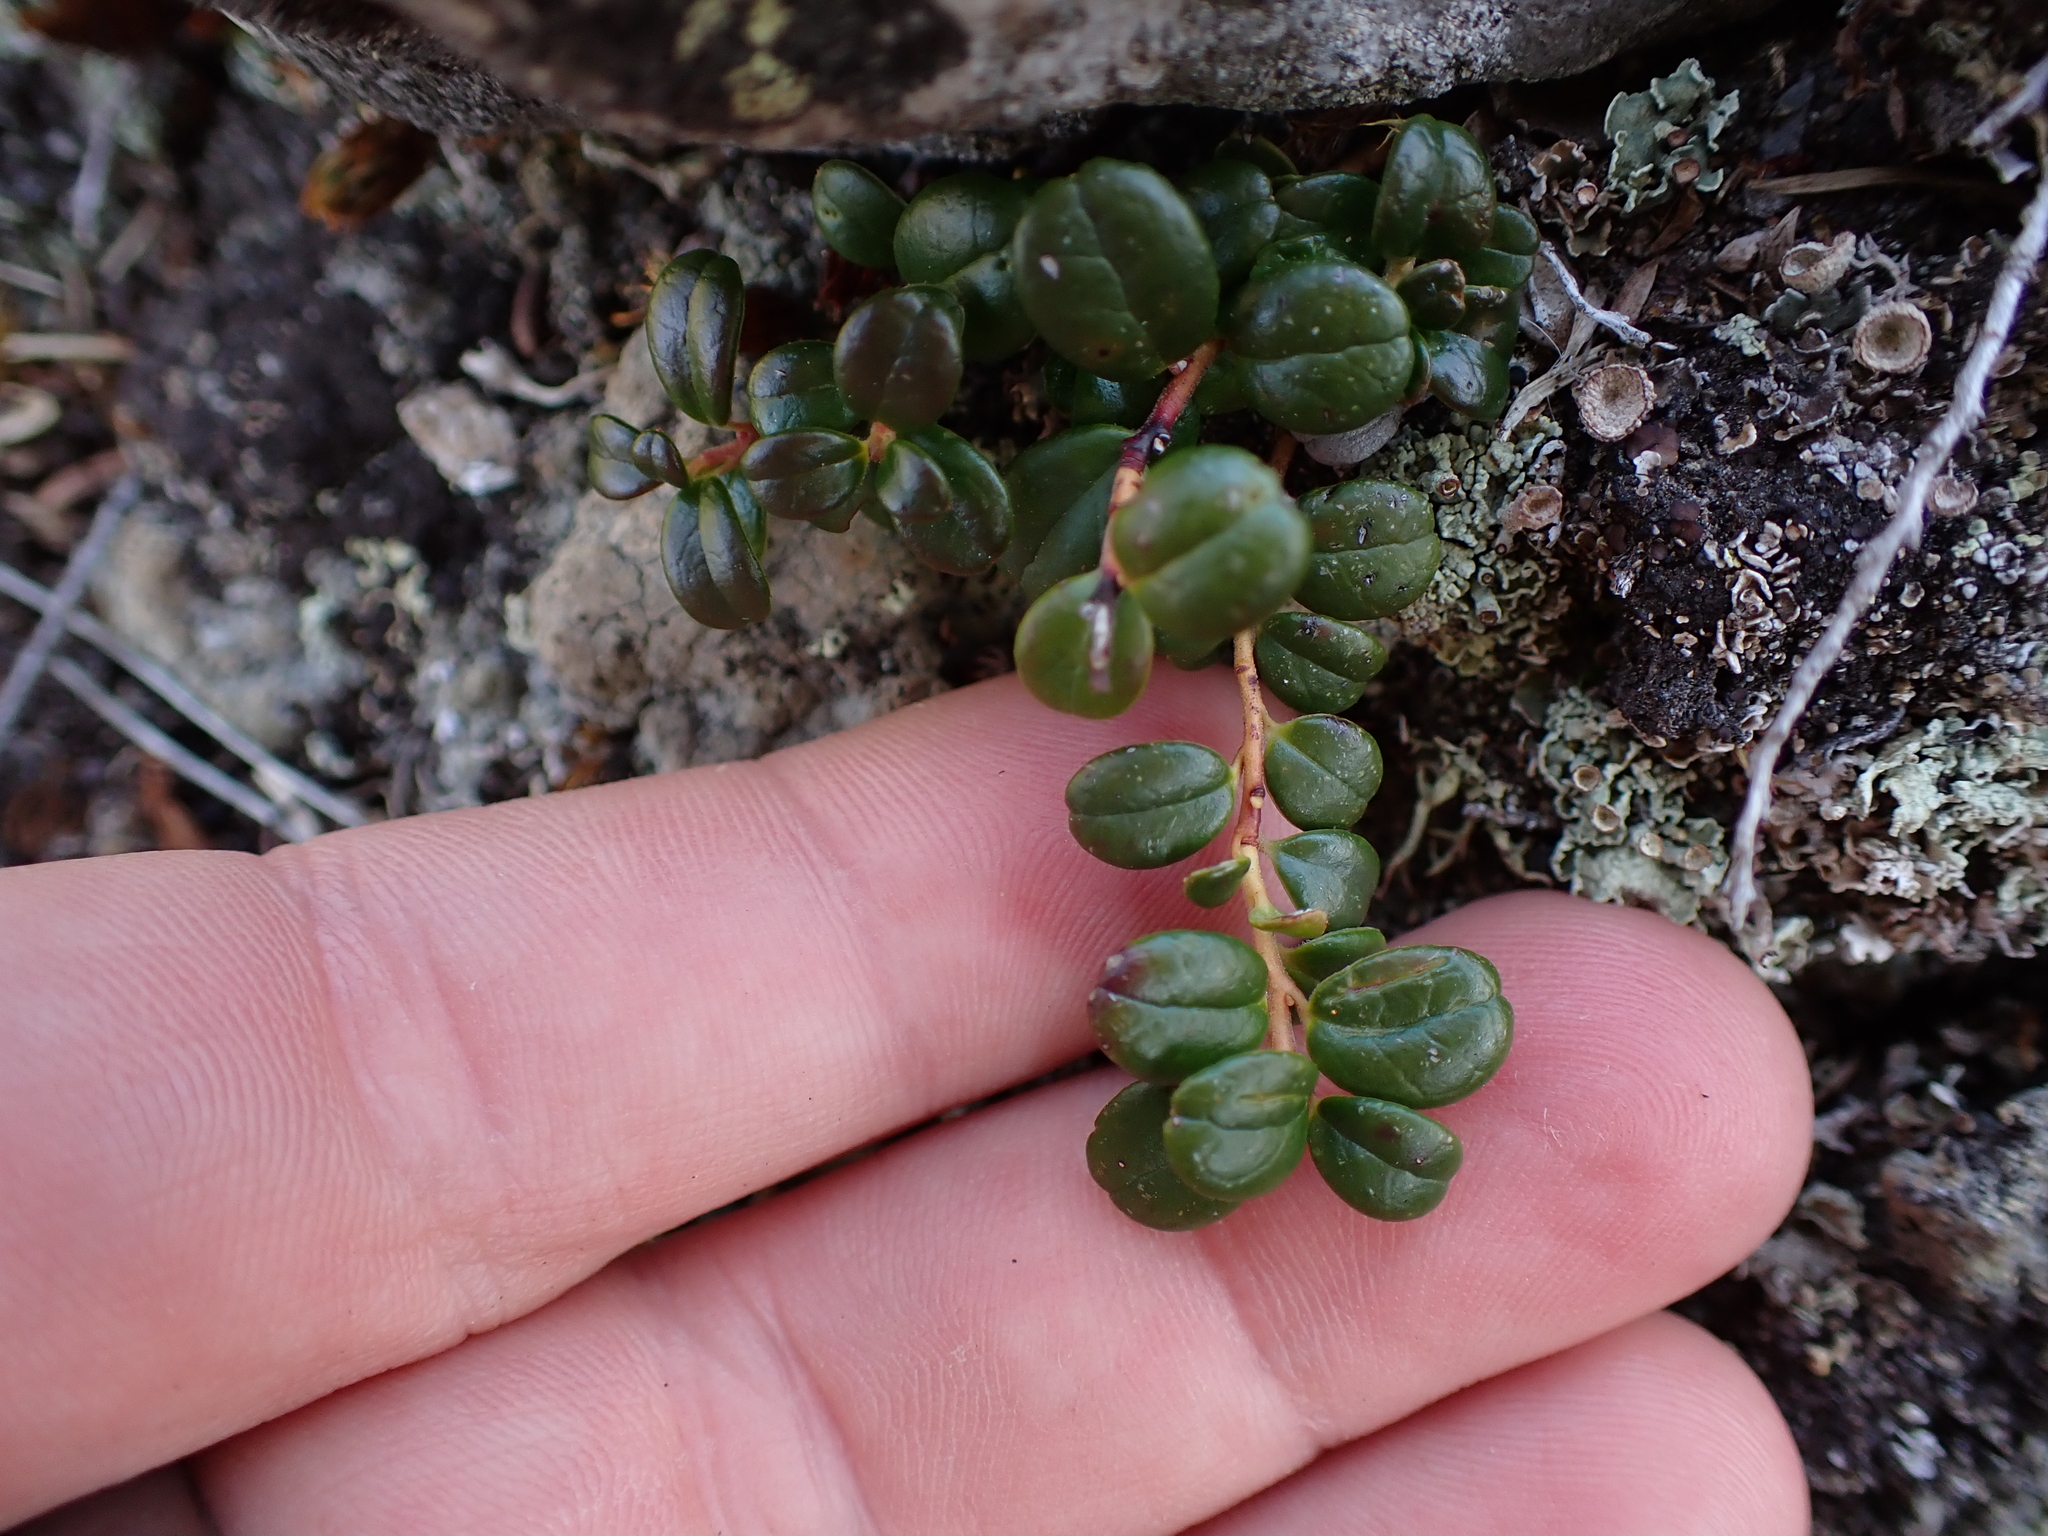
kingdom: Plantae
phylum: Tracheophyta
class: Magnoliopsida
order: Ericales
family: Ericaceae
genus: Vaccinium
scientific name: Vaccinium vitis-idaea
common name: Cowberry
